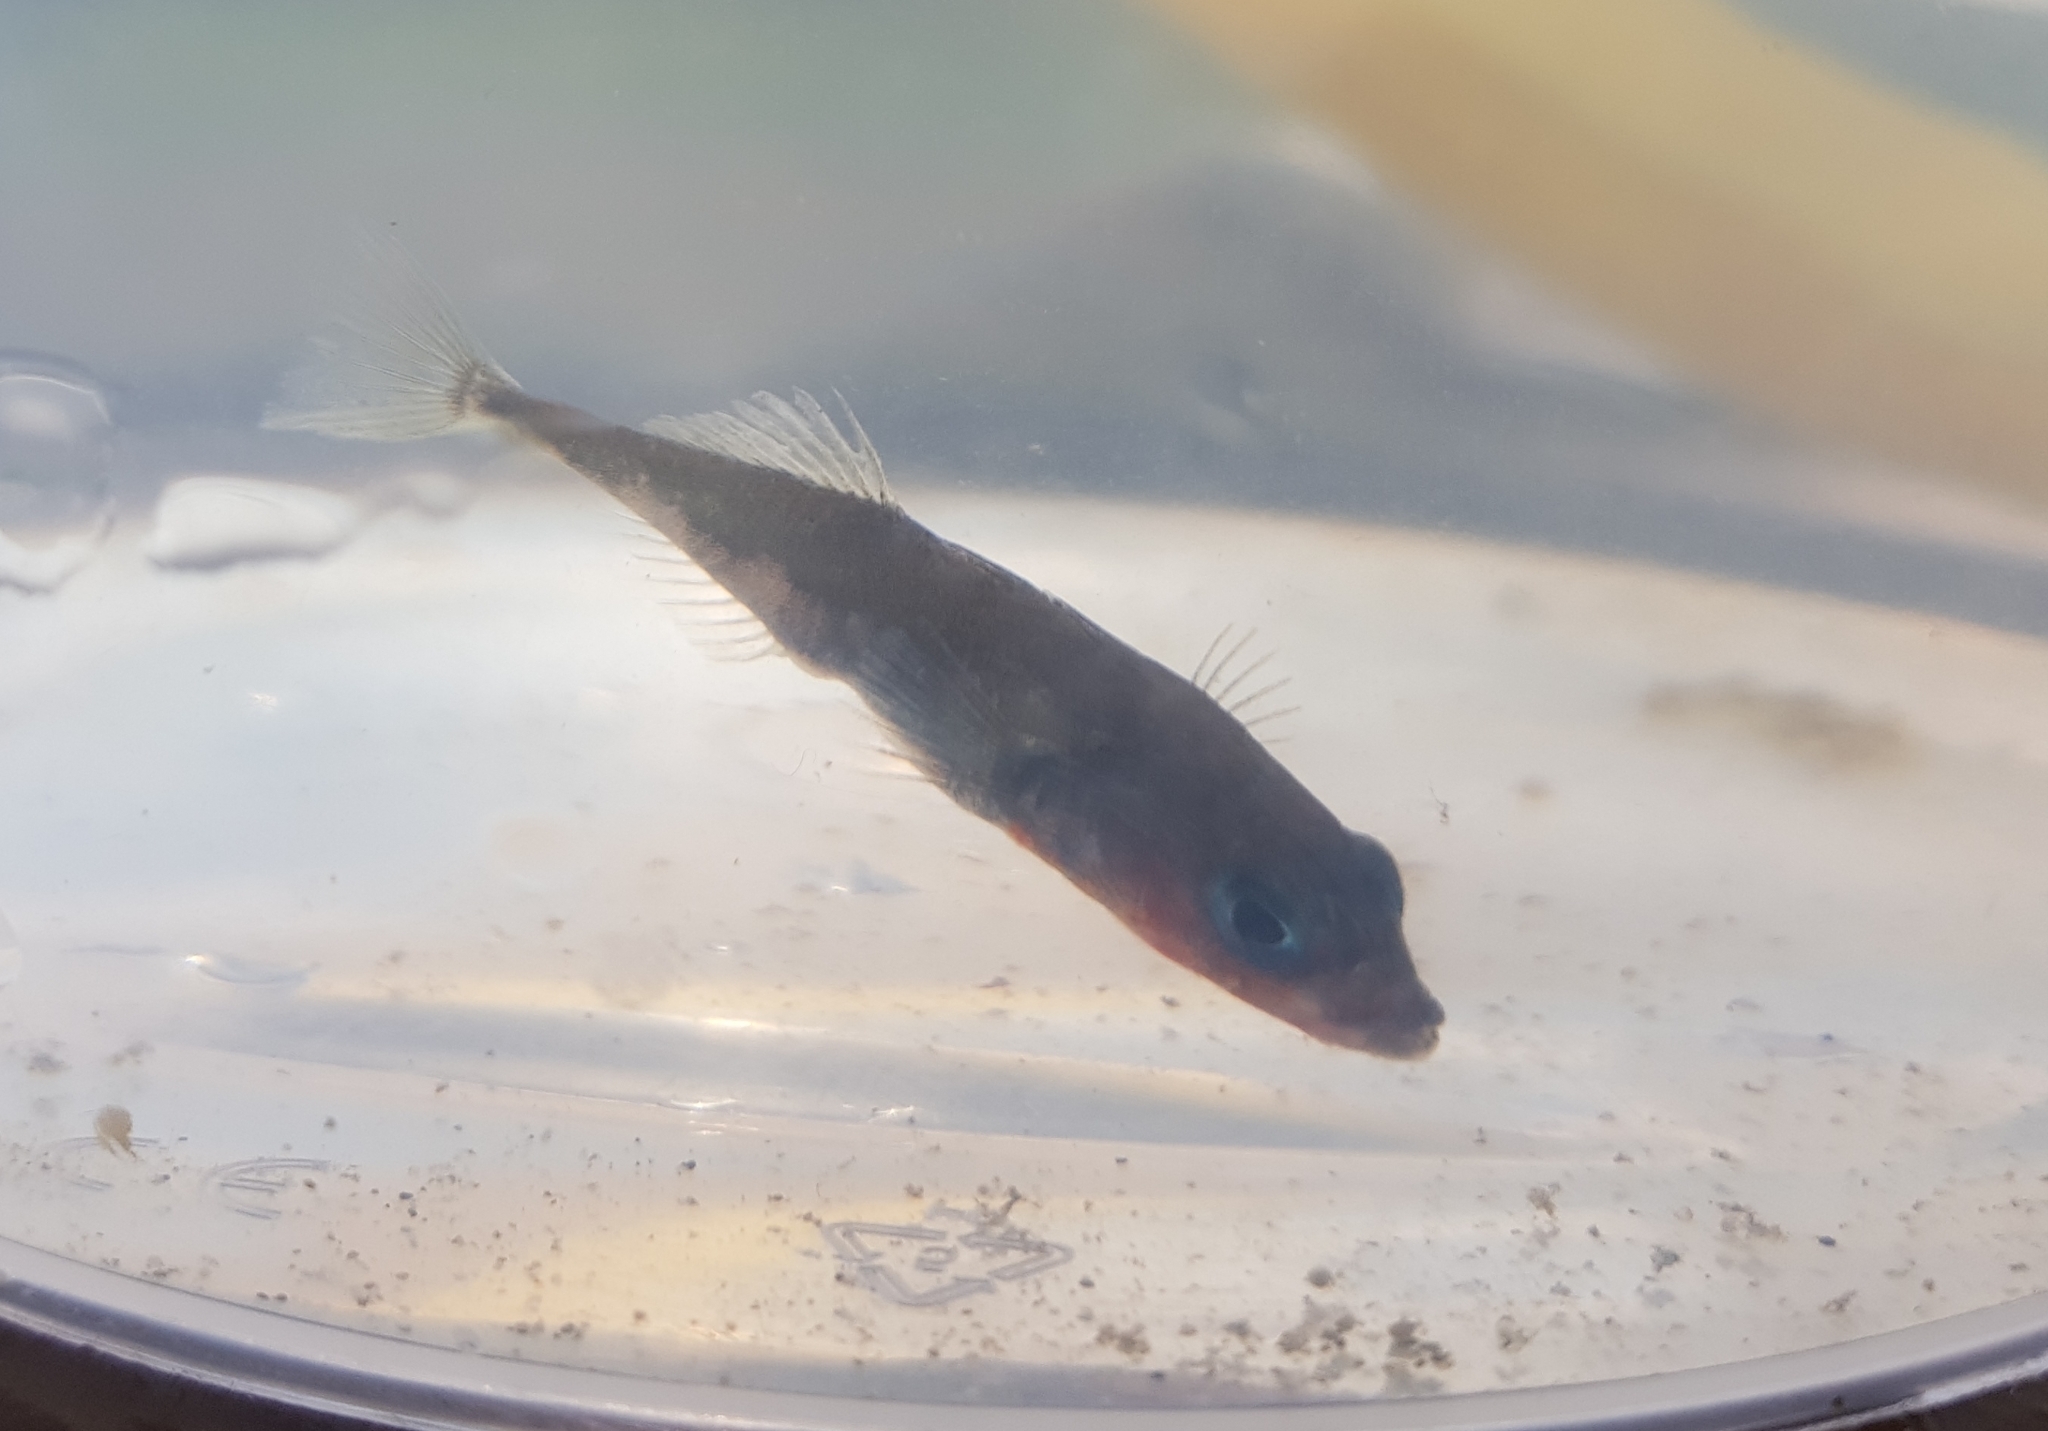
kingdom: Animalia
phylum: Chordata
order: Gasterosteiformes
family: Gasterosteidae
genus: Gasterosteus
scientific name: Gasterosteus aculeatus
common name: Three-spined stickleback
